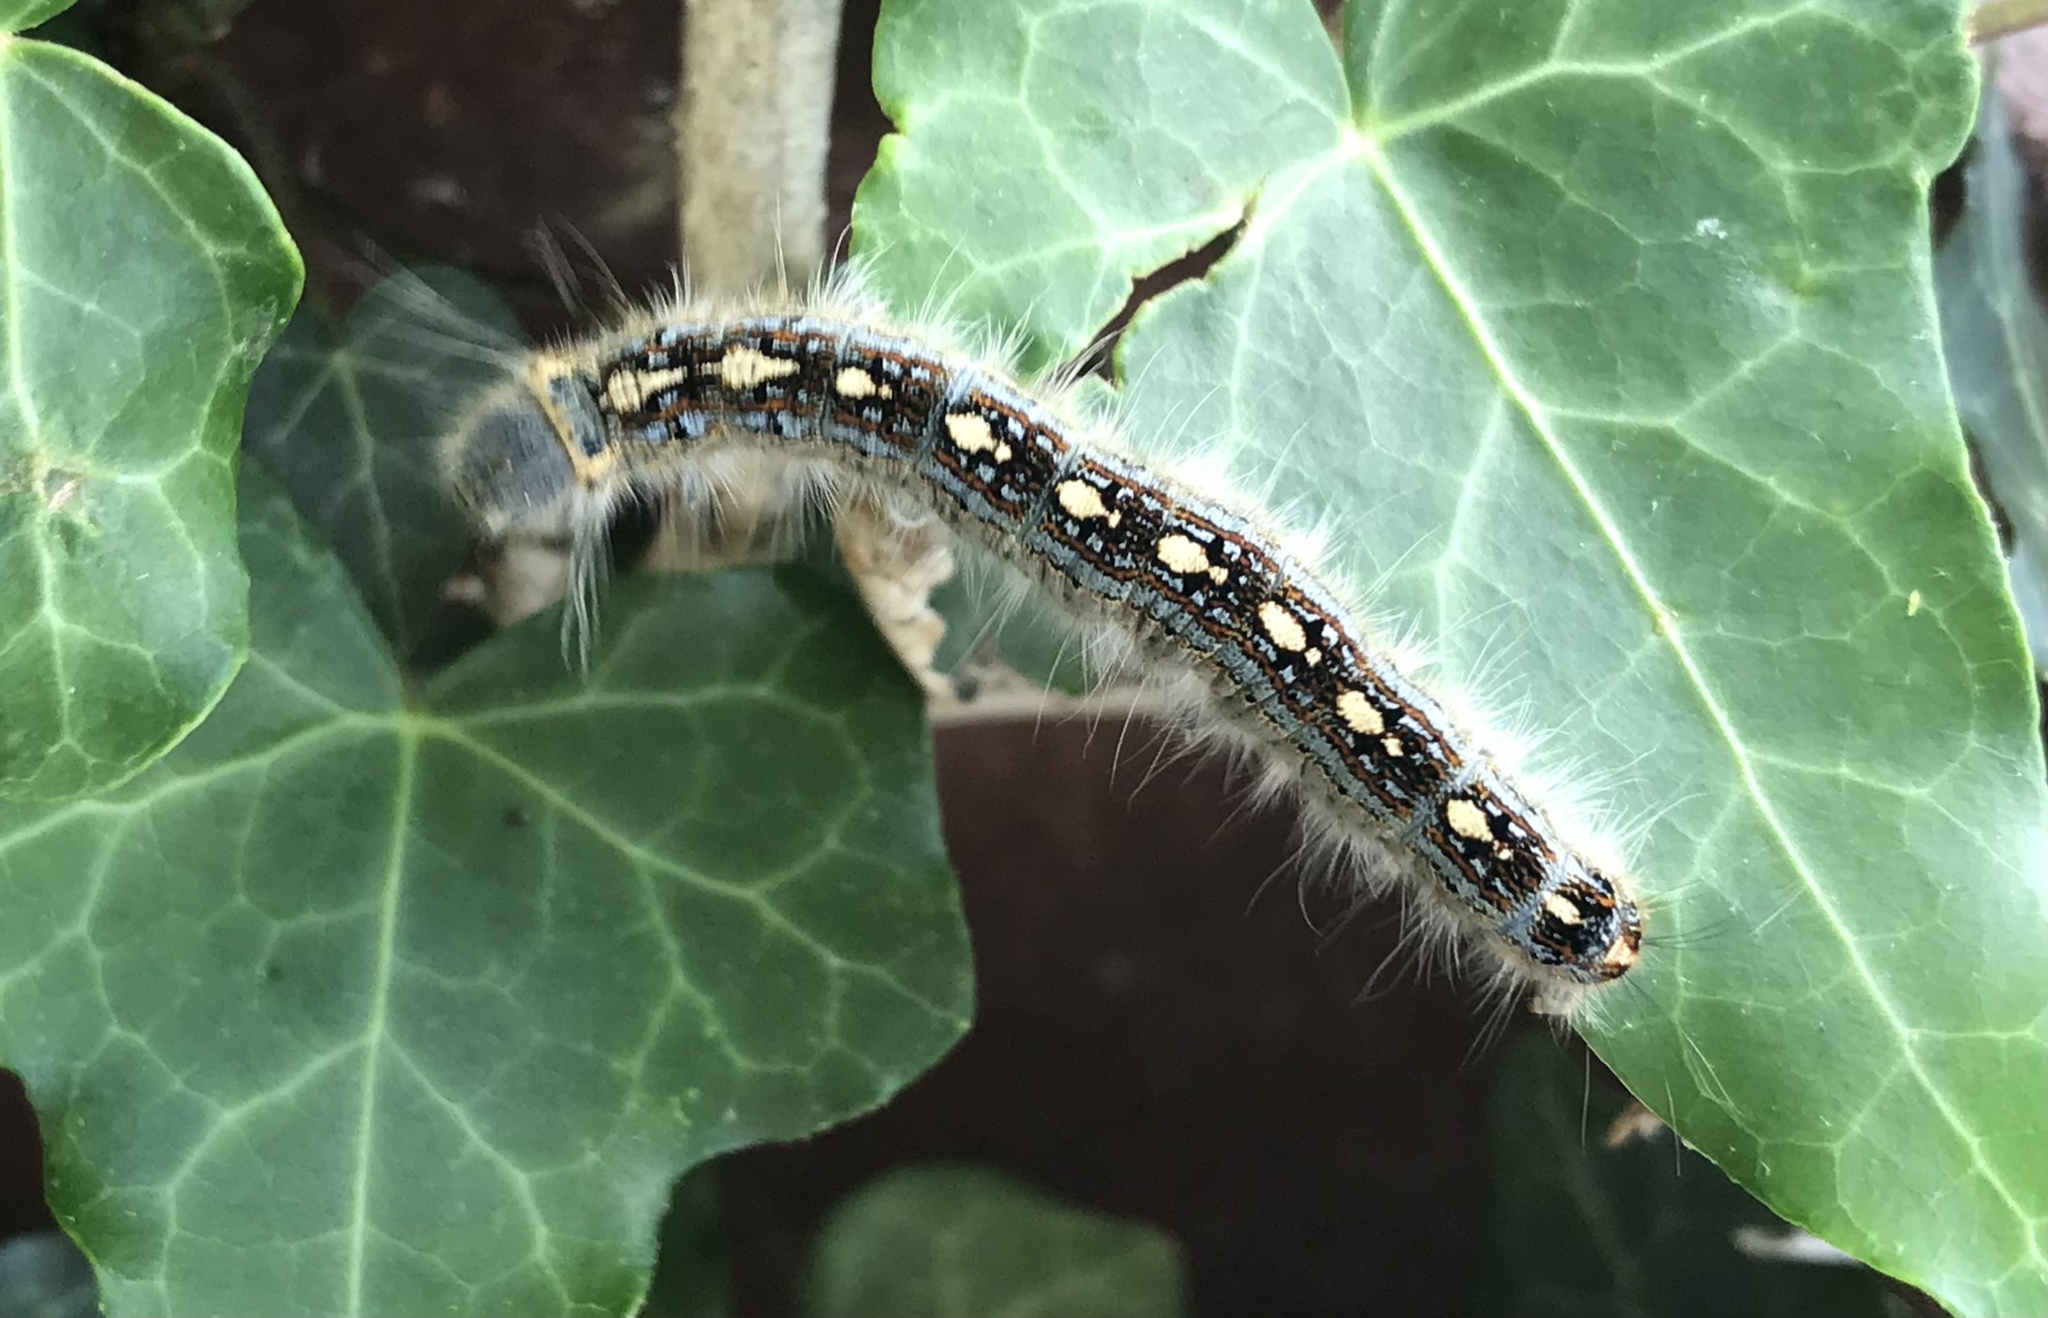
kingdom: Animalia
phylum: Arthropoda
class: Insecta
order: Lepidoptera
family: Lasiocampidae
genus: Malacosoma
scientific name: Malacosoma disstria
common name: Forest tent caterpillar
